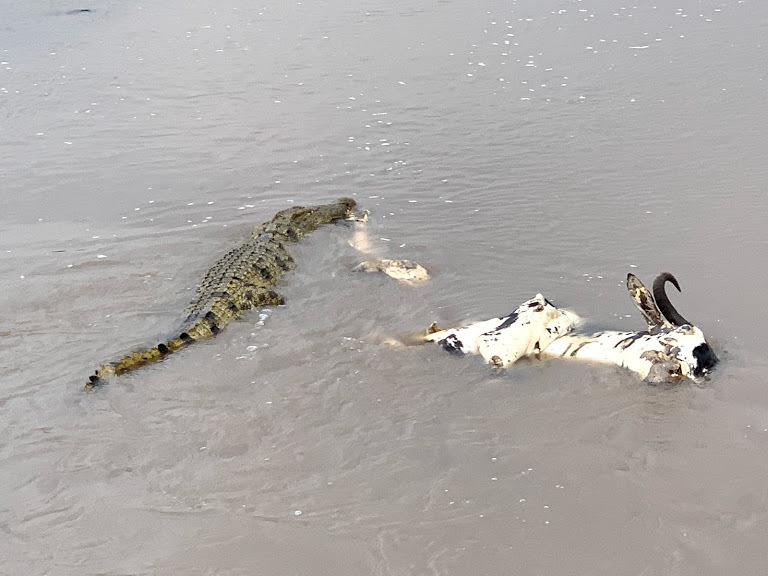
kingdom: Animalia
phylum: Chordata
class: Crocodylia
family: Crocodylidae
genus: Crocodylus
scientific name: Crocodylus niloticus
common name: Nile crocodile
